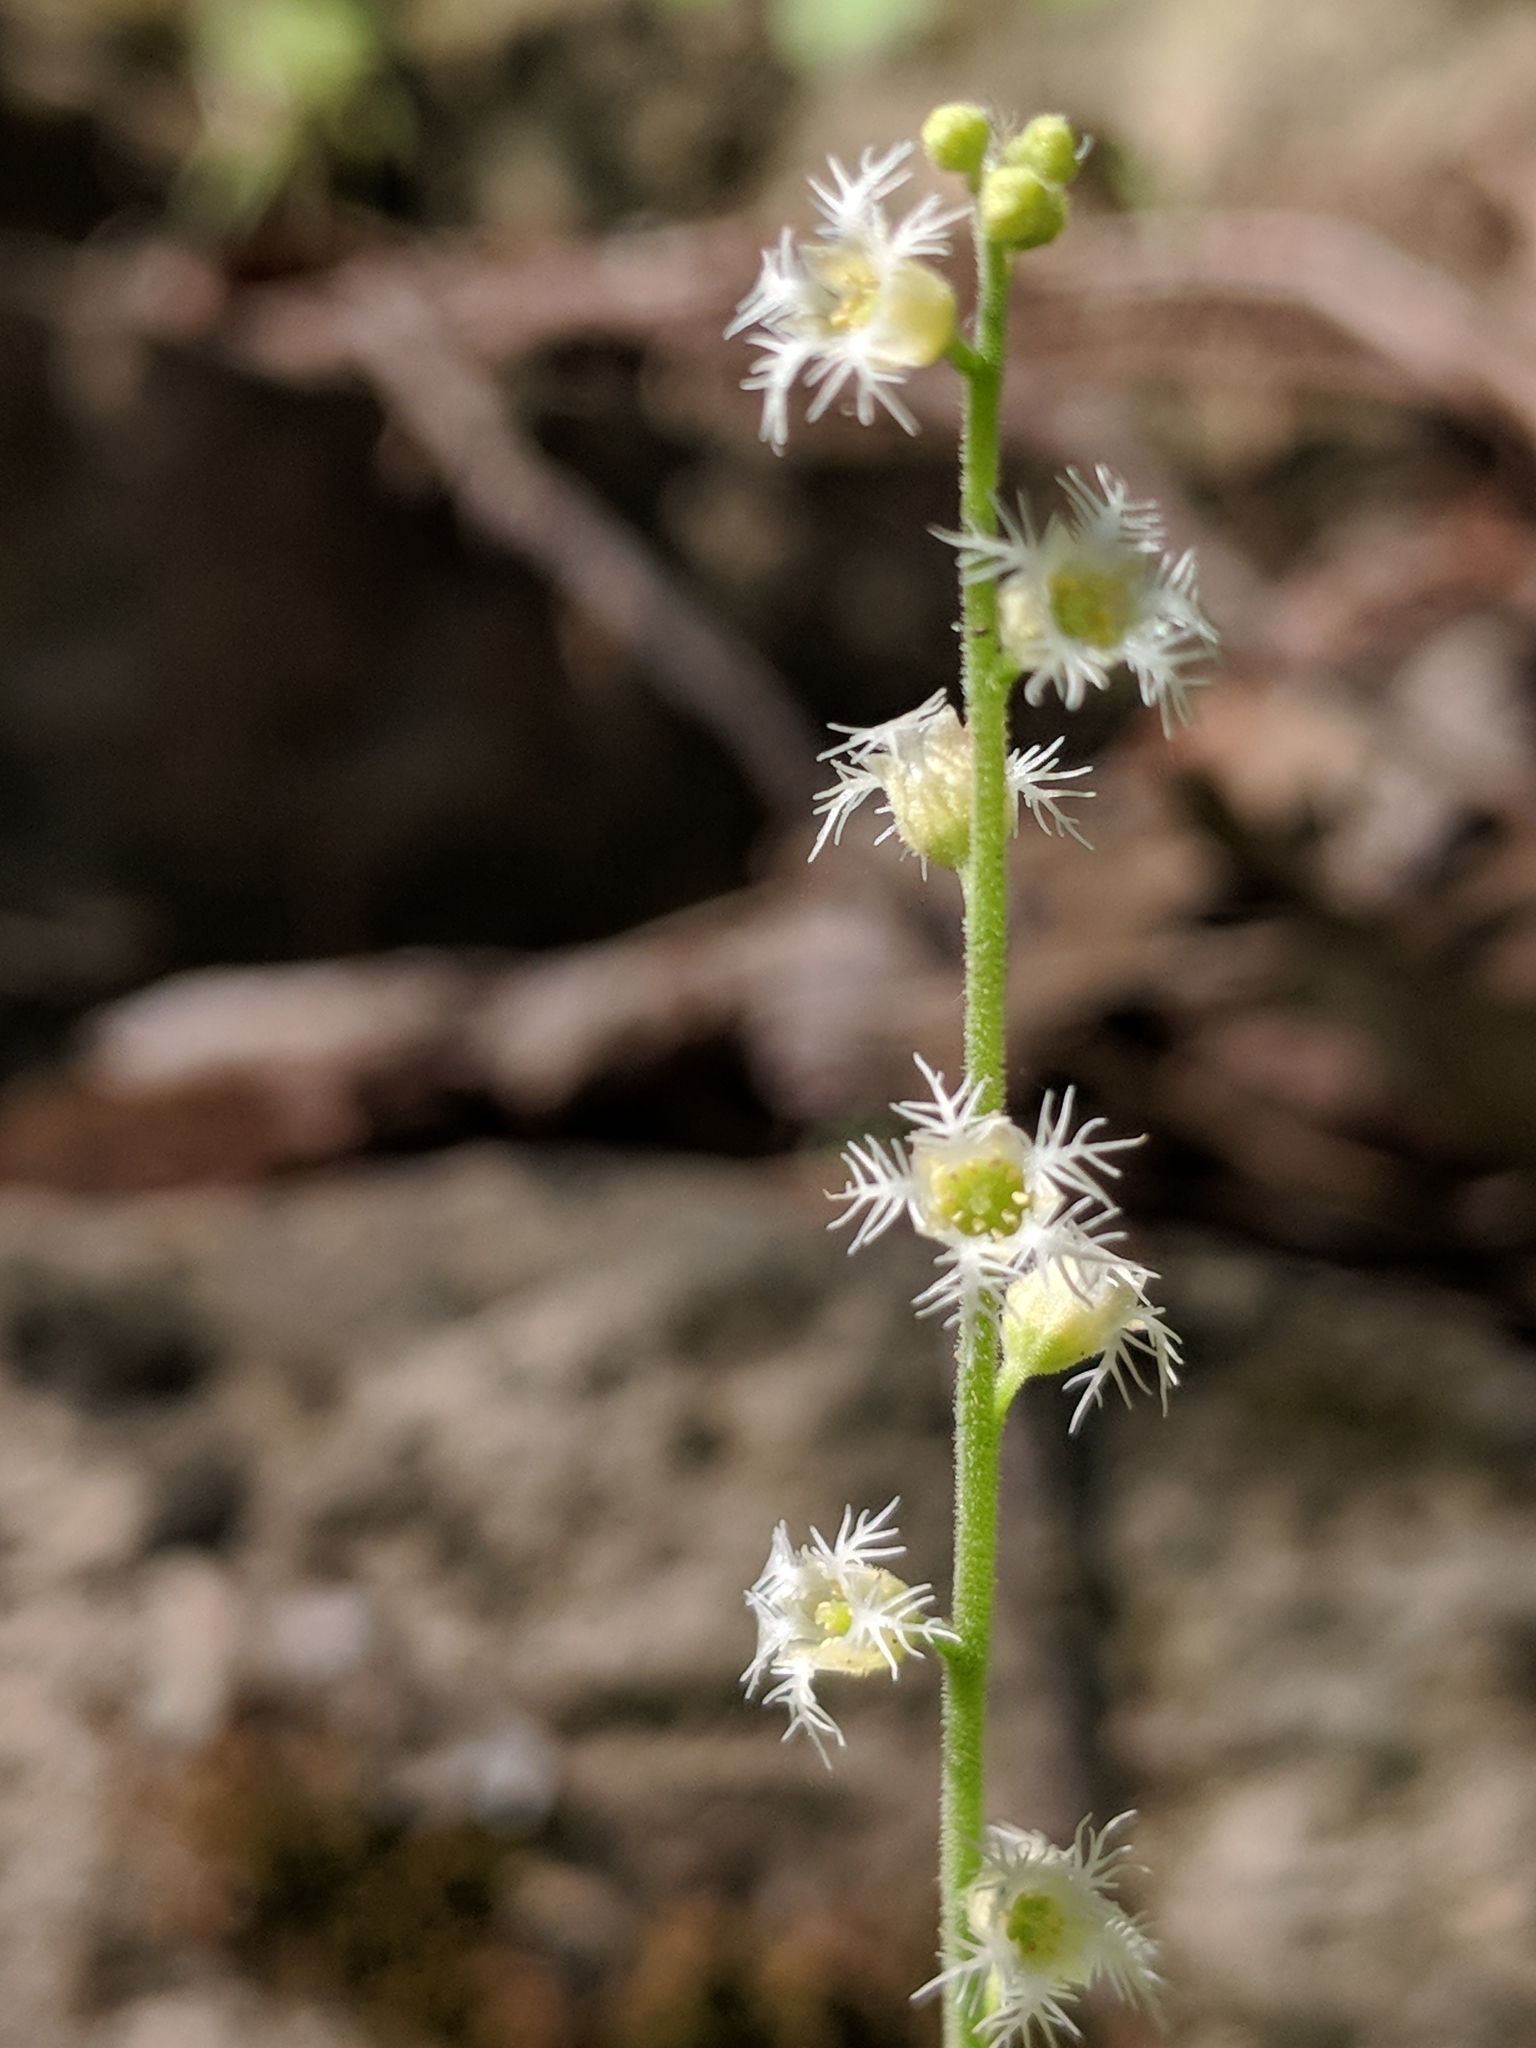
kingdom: Plantae
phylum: Tracheophyta
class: Magnoliopsida
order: Saxifragales
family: Saxifragaceae
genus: Mitella
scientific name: Mitella diphylla
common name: Coolwort
